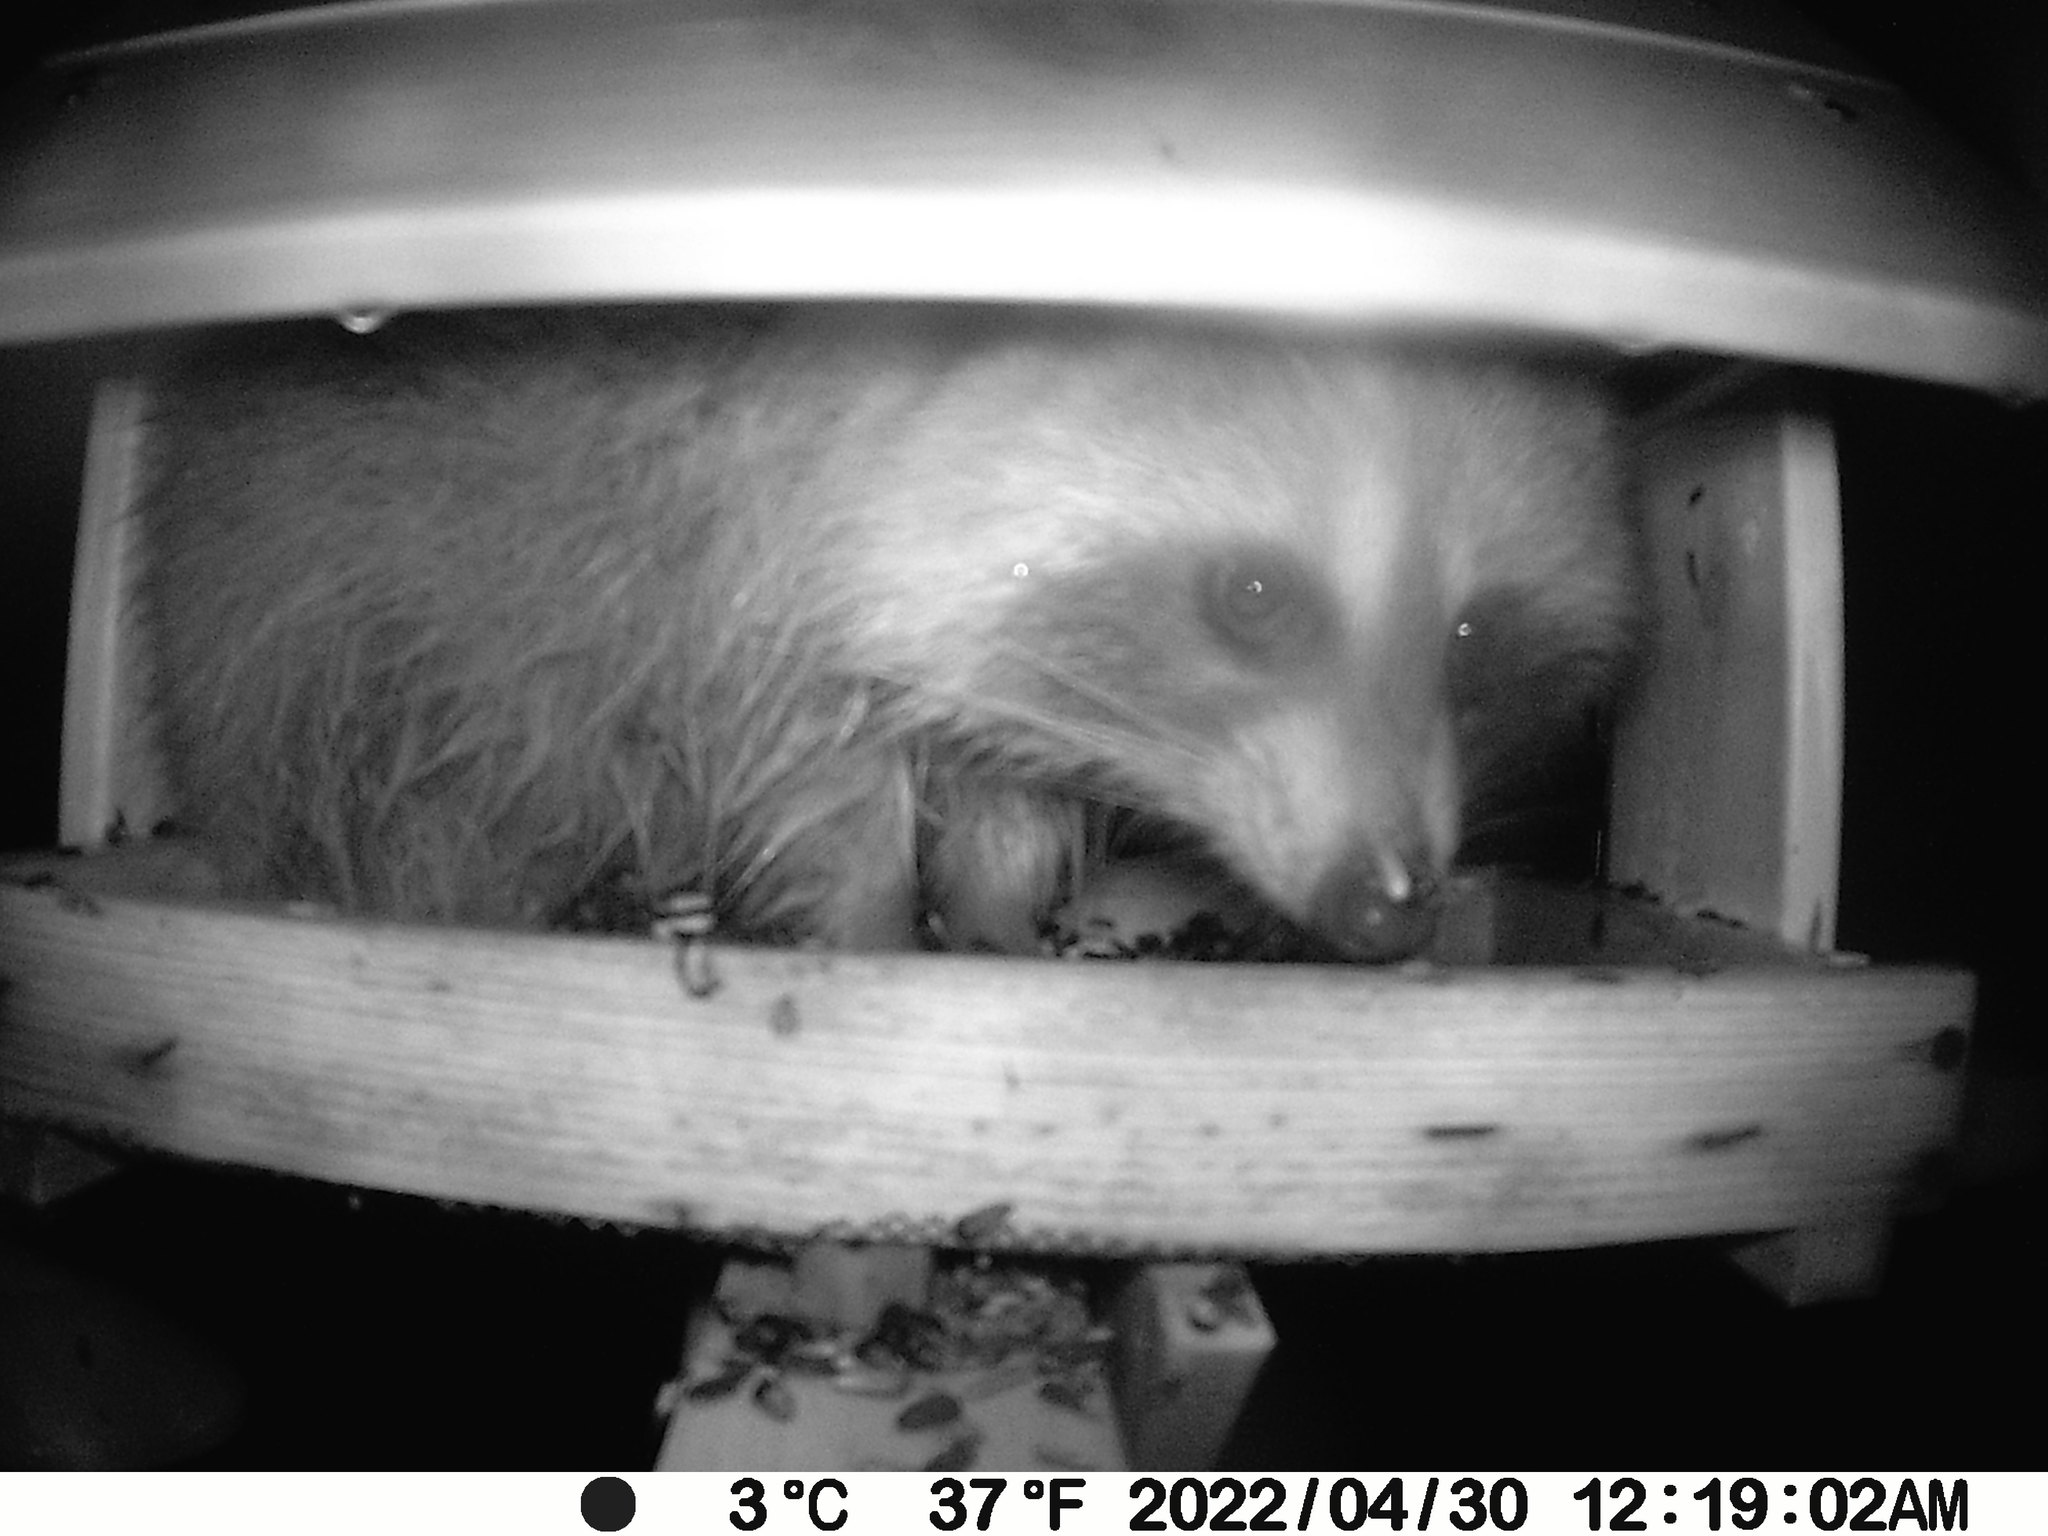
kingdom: Animalia
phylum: Chordata
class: Mammalia
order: Carnivora
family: Procyonidae
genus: Procyon
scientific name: Procyon lotor
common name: Raccoon
